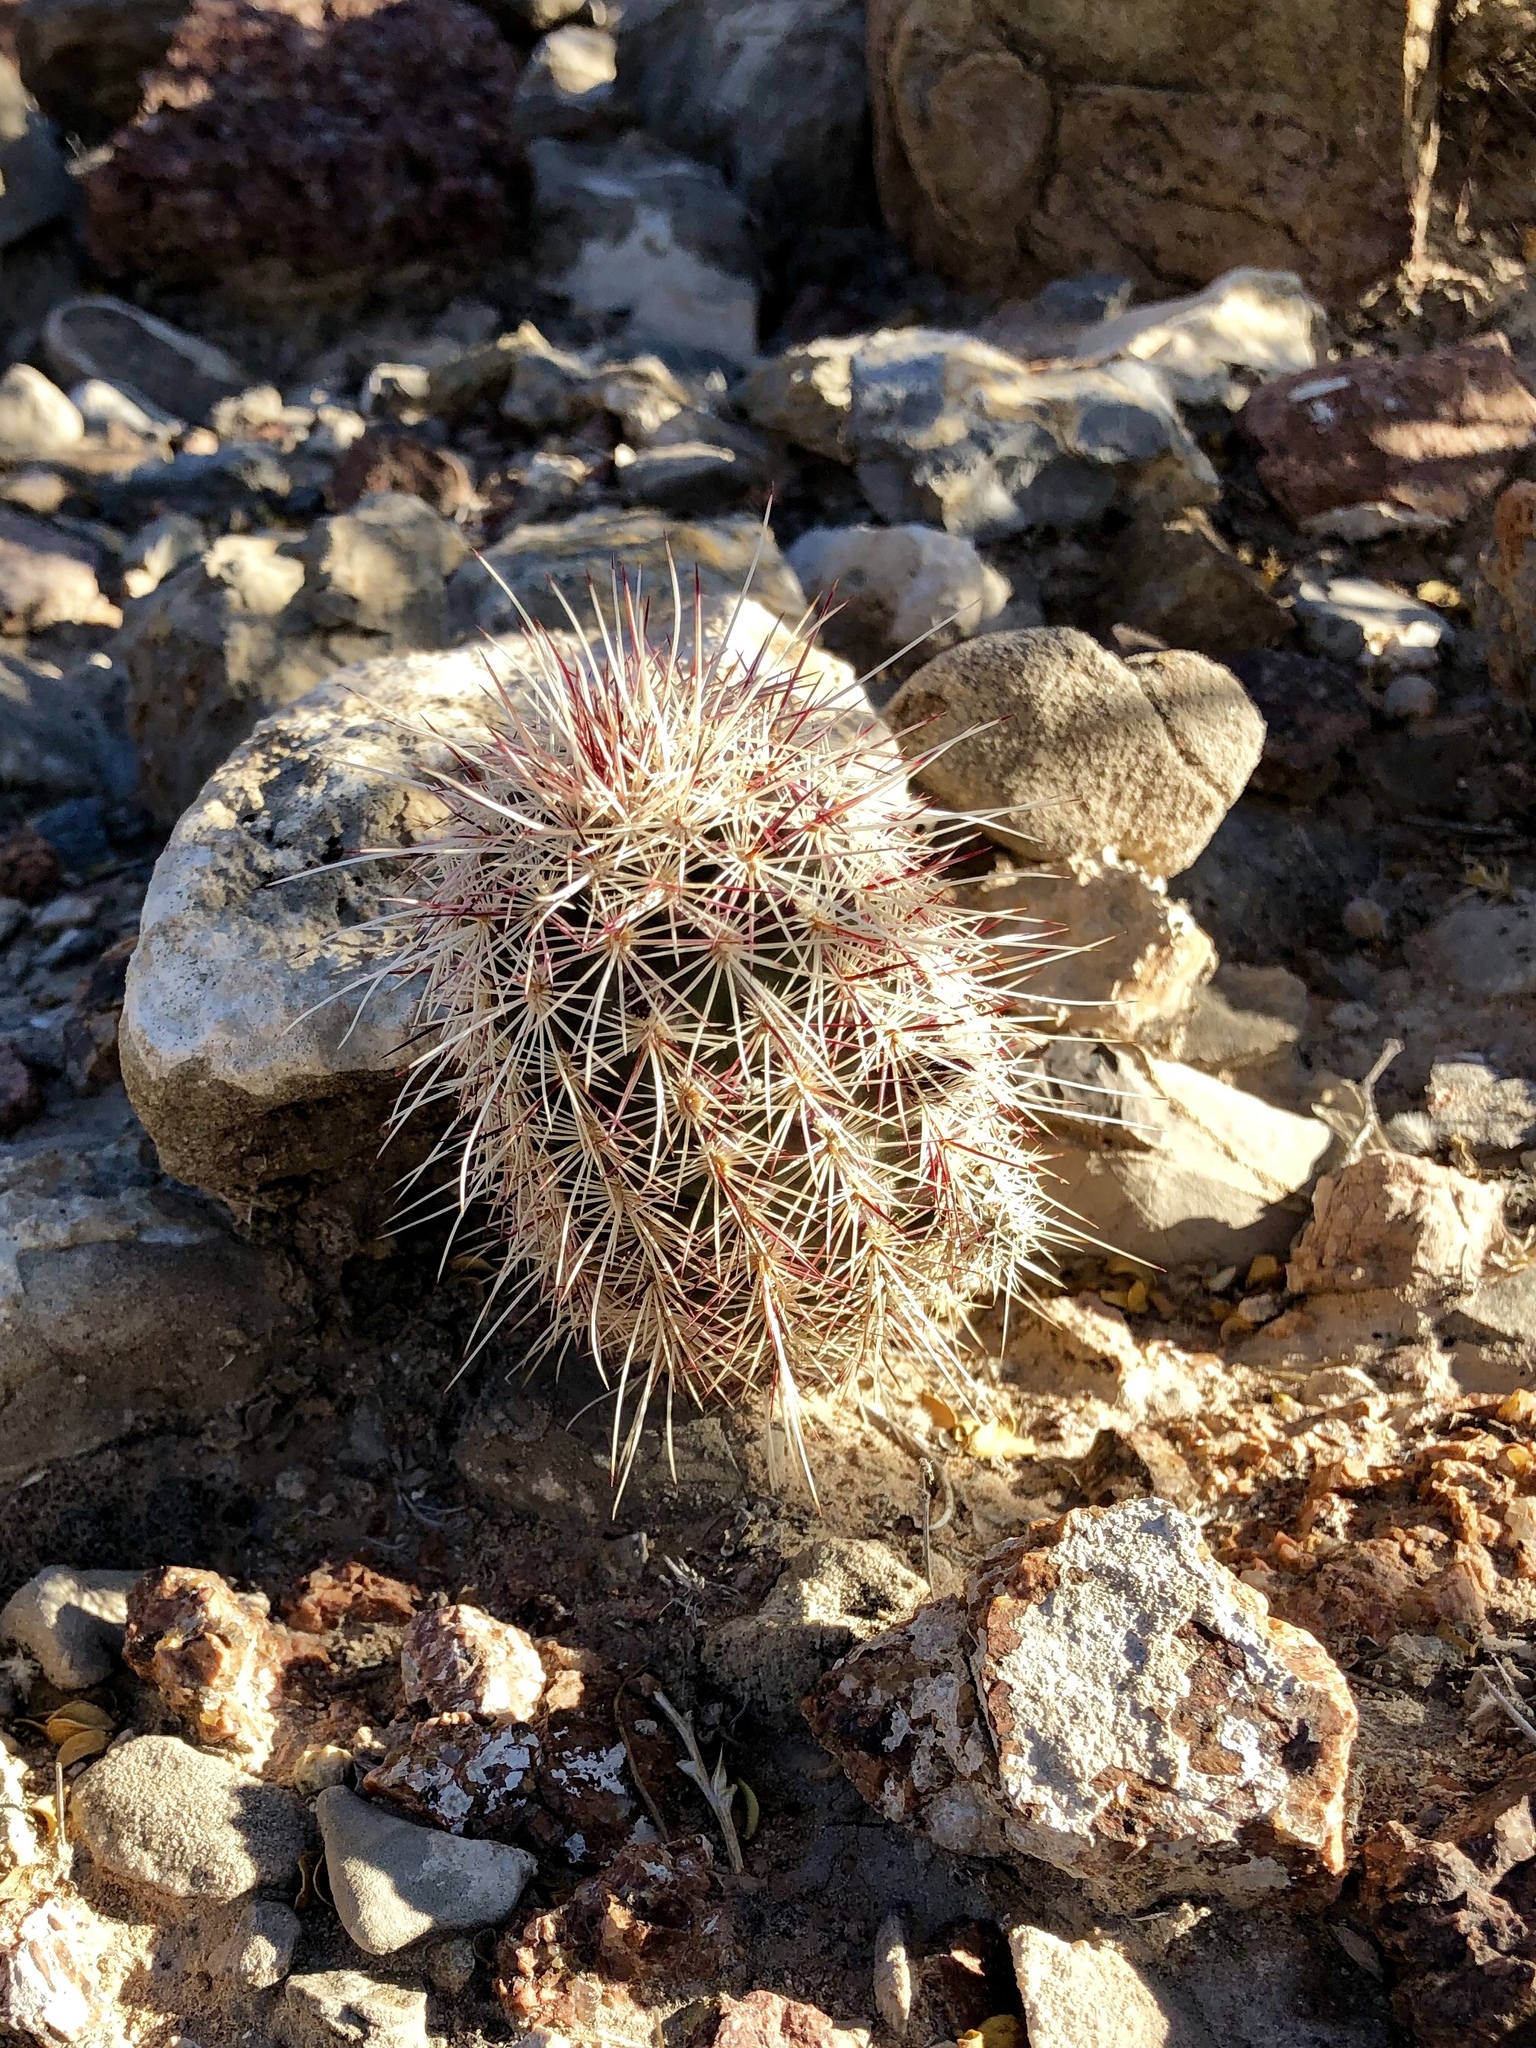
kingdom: Plantae
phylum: Tracheophyta
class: Magnoliopsida
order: Caryophyllales
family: Cactaceae
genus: Echinocereus
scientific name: Echinocereus viridiflorus
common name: Nylon hedgehog cactus
